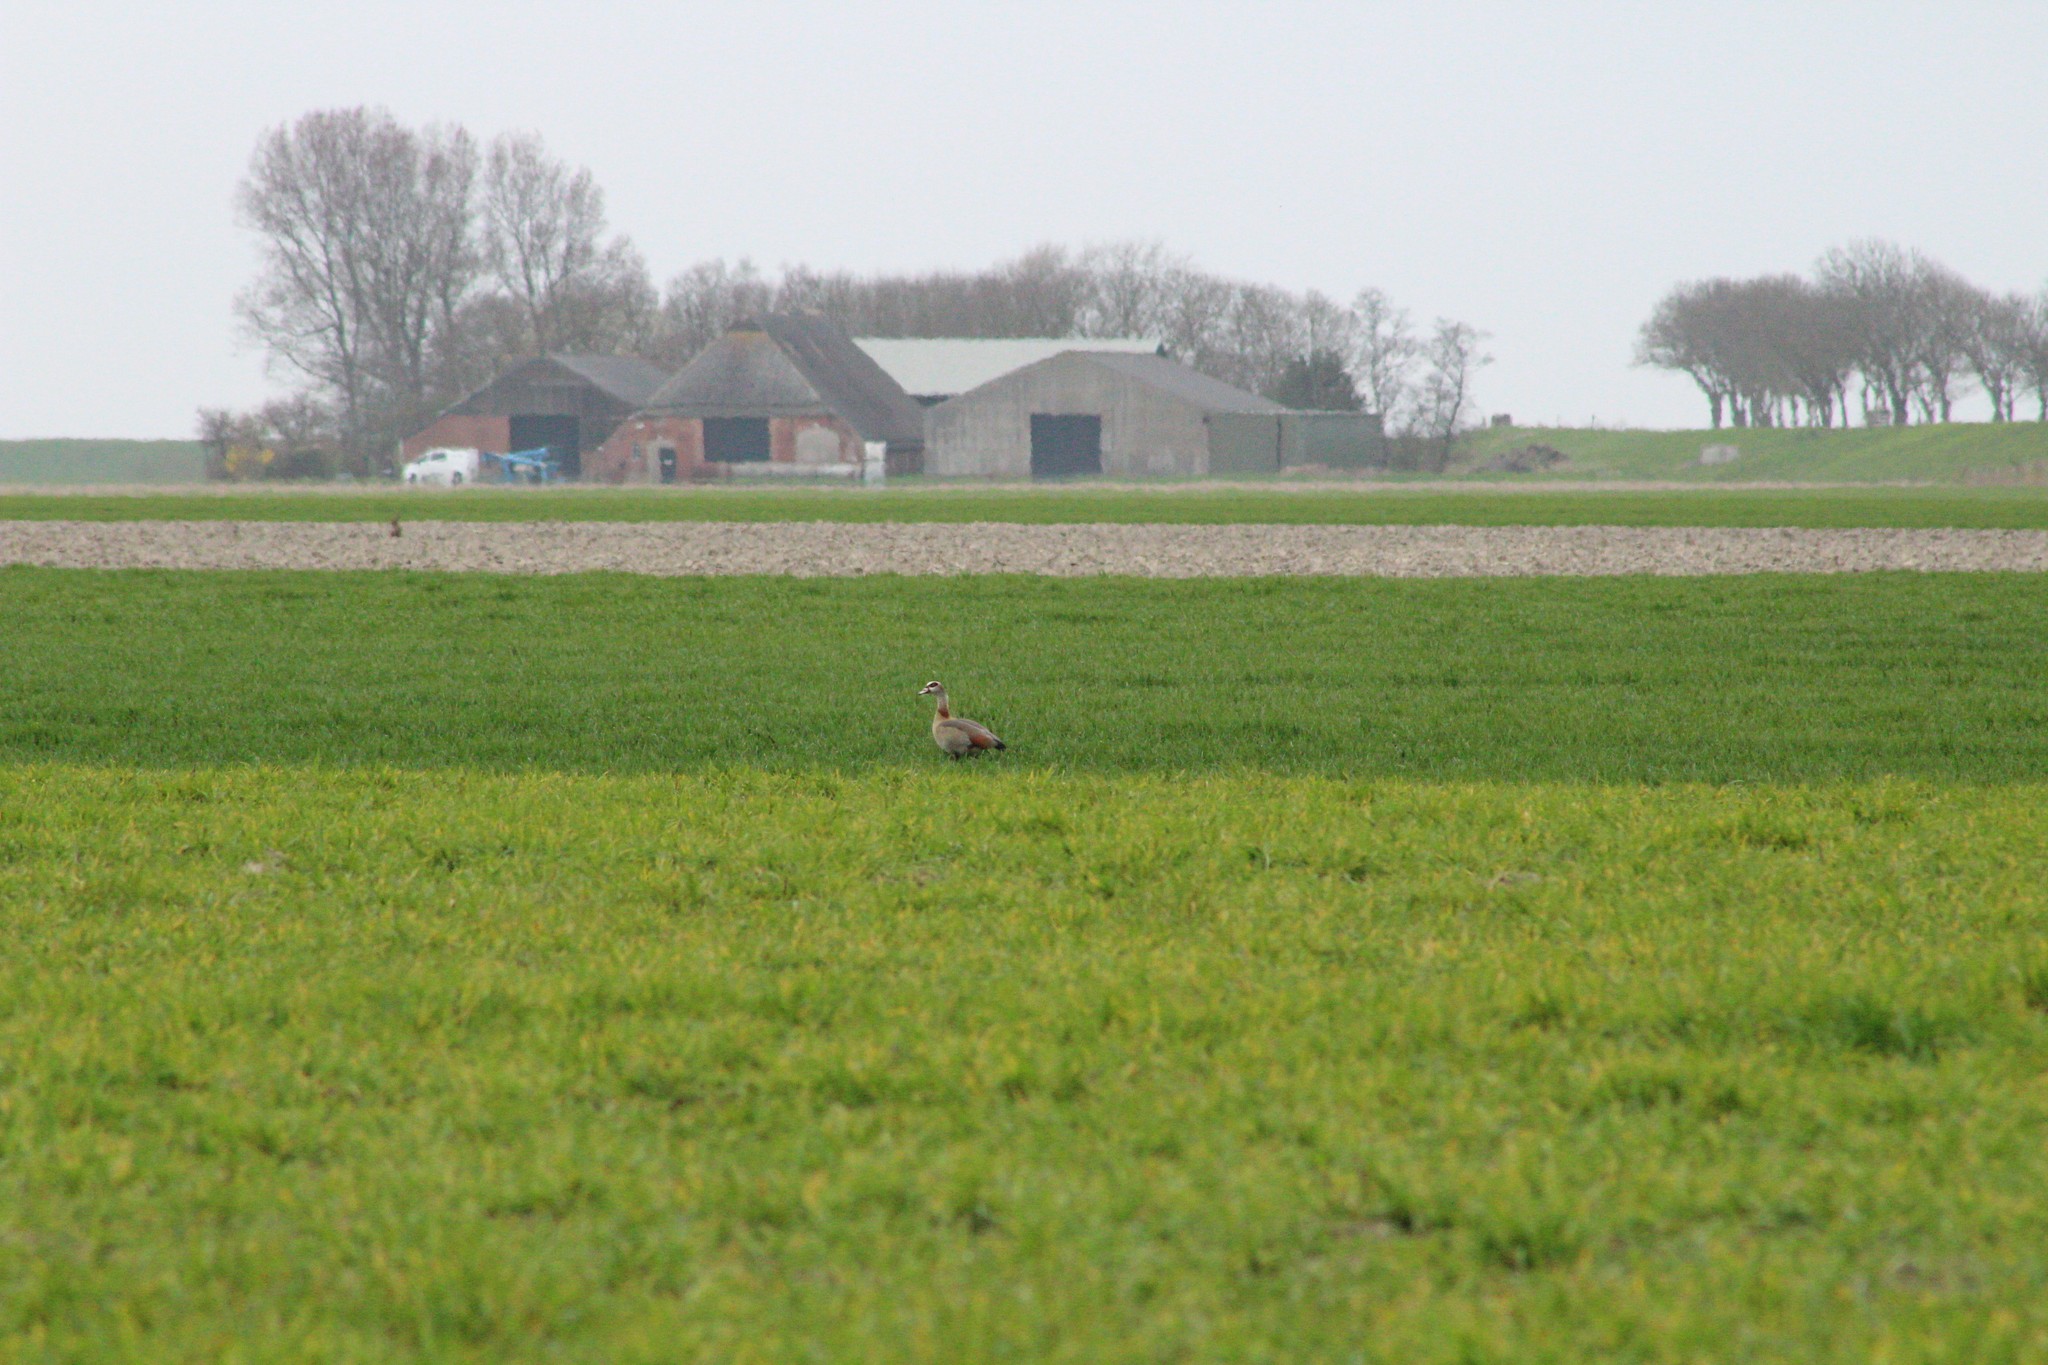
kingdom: Animalia
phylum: Chordata
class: Aves
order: Anseriformes
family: Anatidae
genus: Alopochen
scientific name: Alopochen aegyptiaca
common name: Egyptian goose
